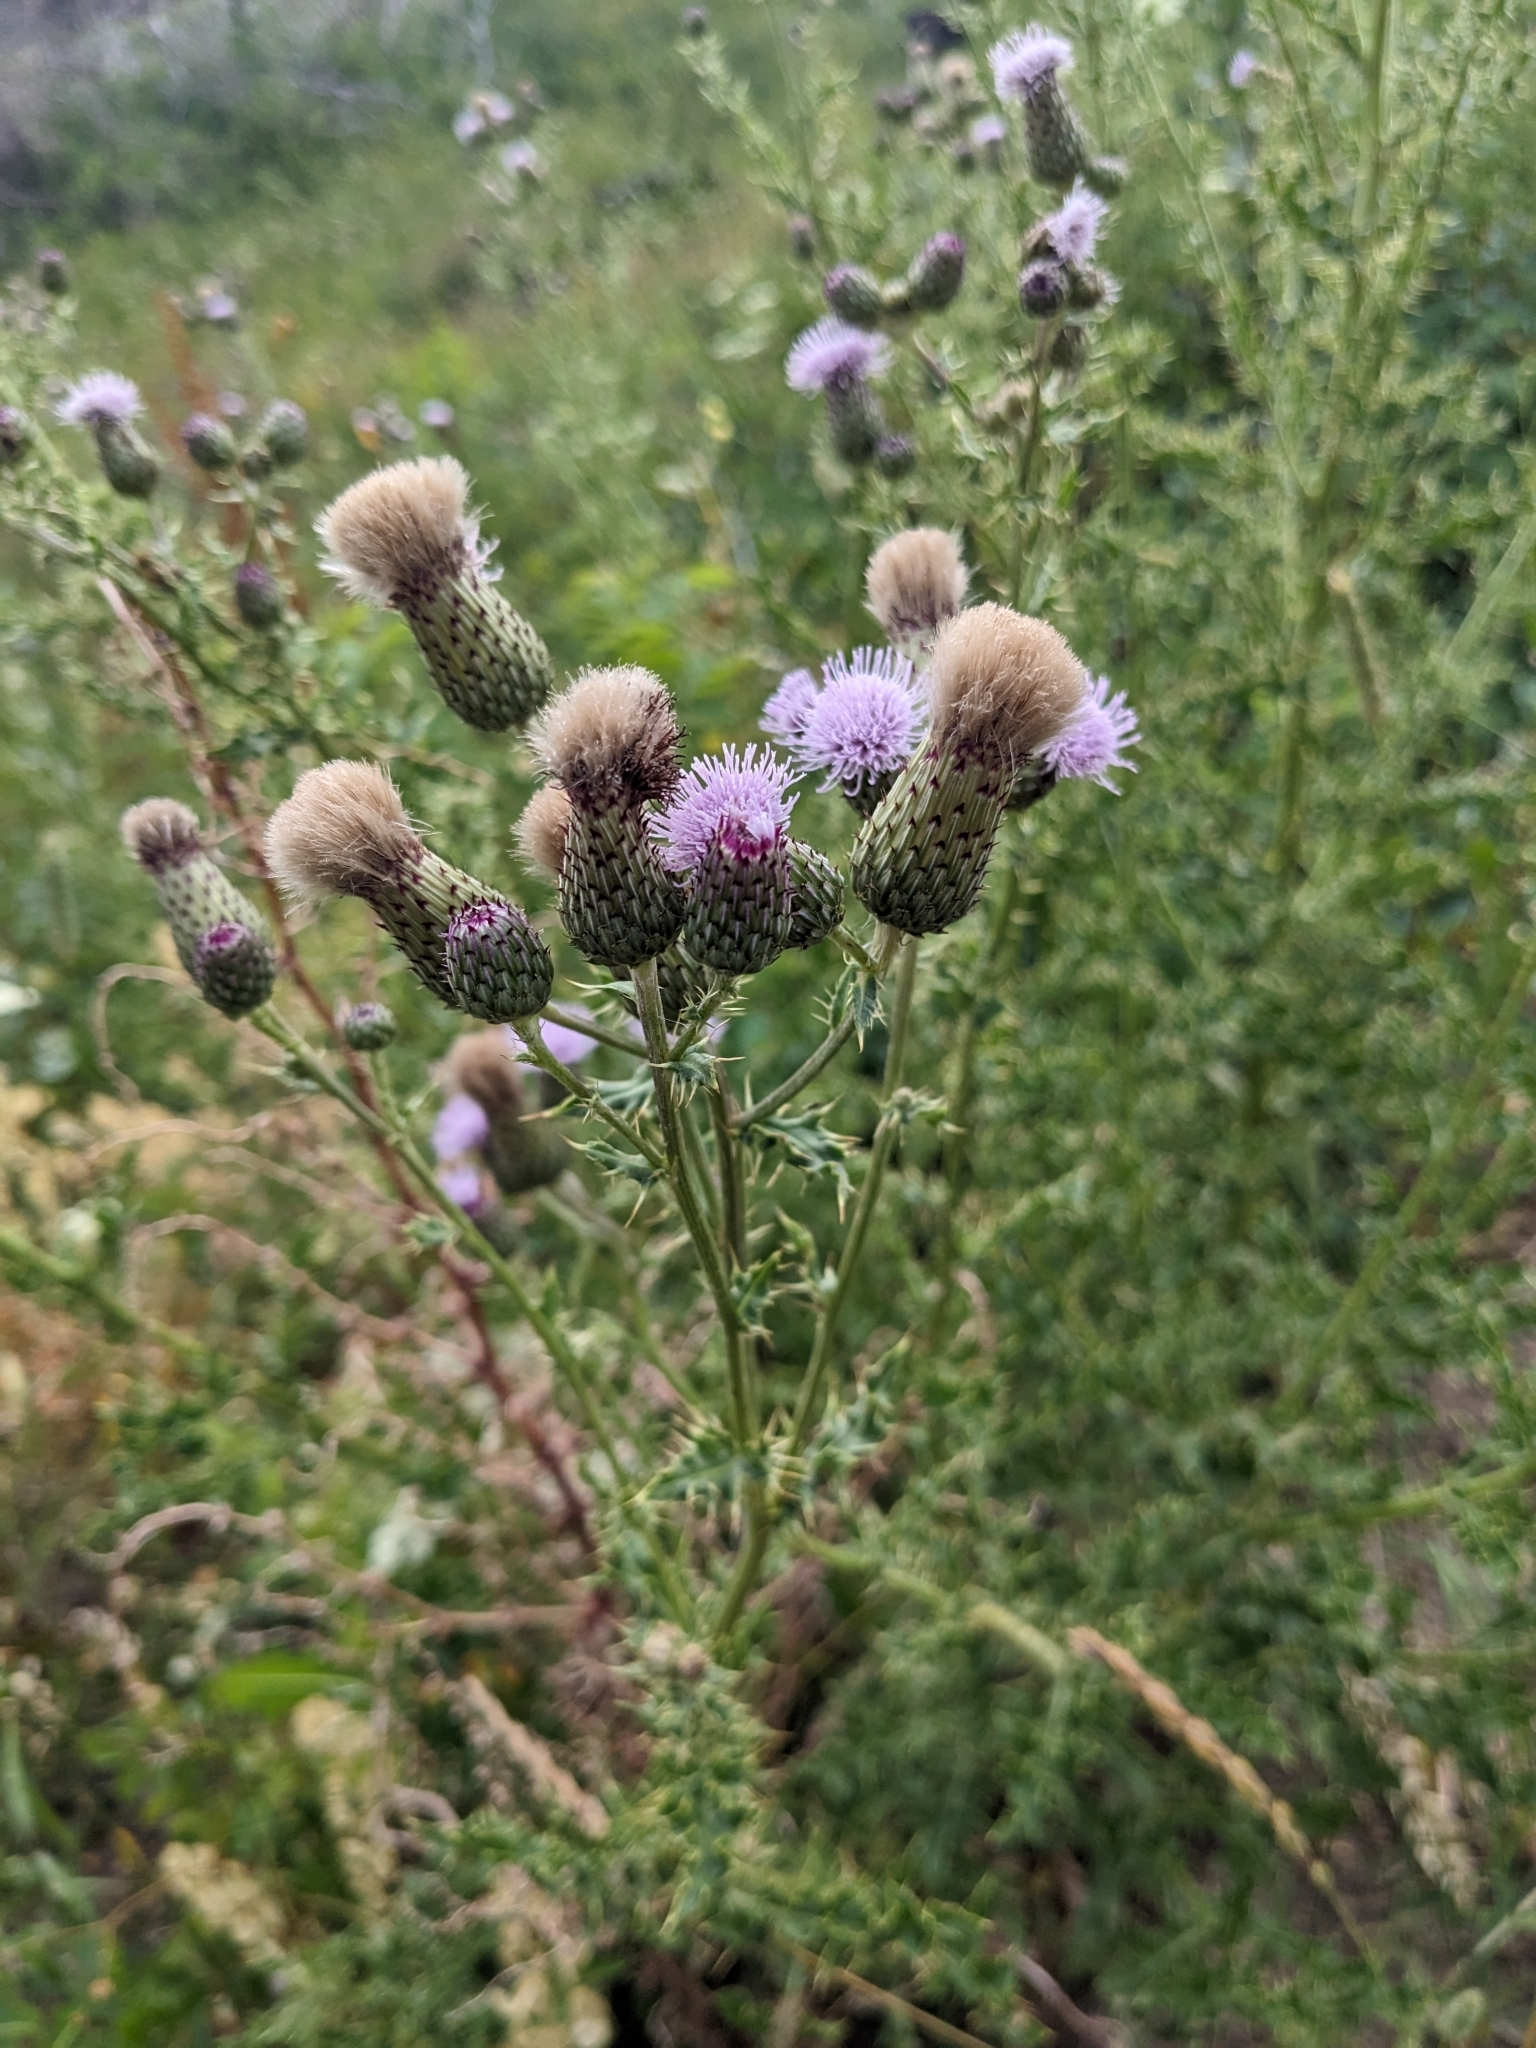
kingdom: Plantae
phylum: Tracheophyta
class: Magnoliopsida
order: Asterales
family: Asteraceae
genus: Cirsium
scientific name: Cirsium arvense
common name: Creeping thistle
